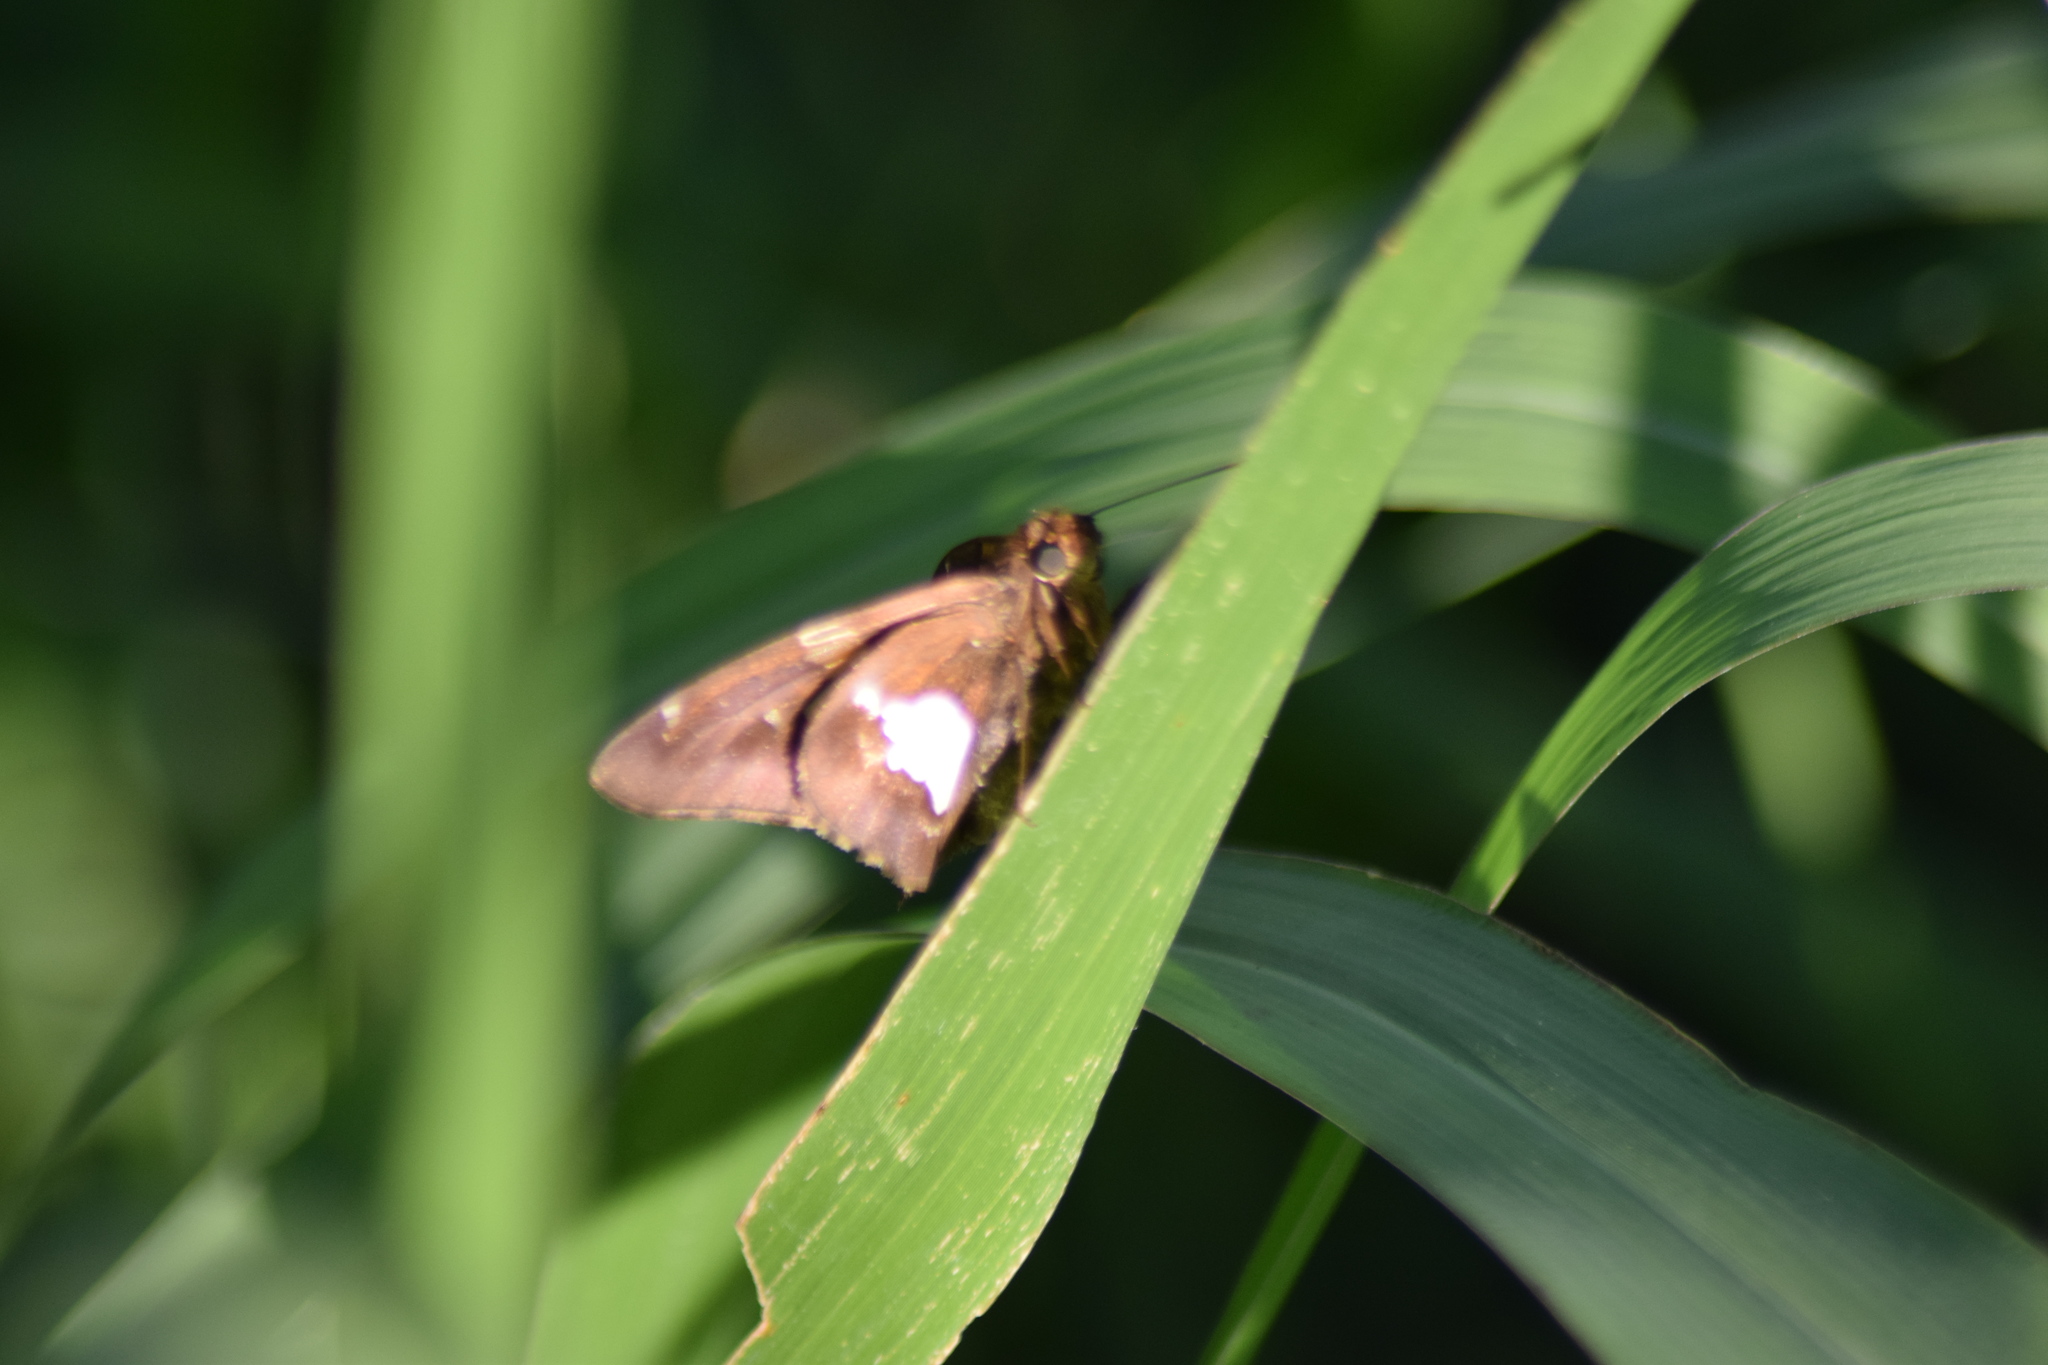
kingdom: Animalia
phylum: Arthropoda
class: Insecta
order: Lepidoptera
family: Hesperiidae
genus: Epargyreus
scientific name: Epargyreus clarus
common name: Silver-spotted skipper
